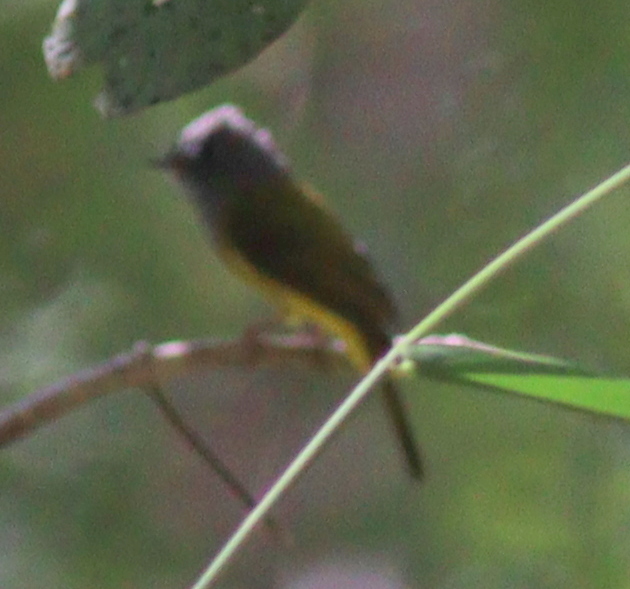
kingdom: Animalia
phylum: Chordata
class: Aves
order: Passeriformes
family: Stenostiridae
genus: Culicicapa
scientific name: Culicicapa ceylonensis
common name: Grey-headed canary-flycatcher
